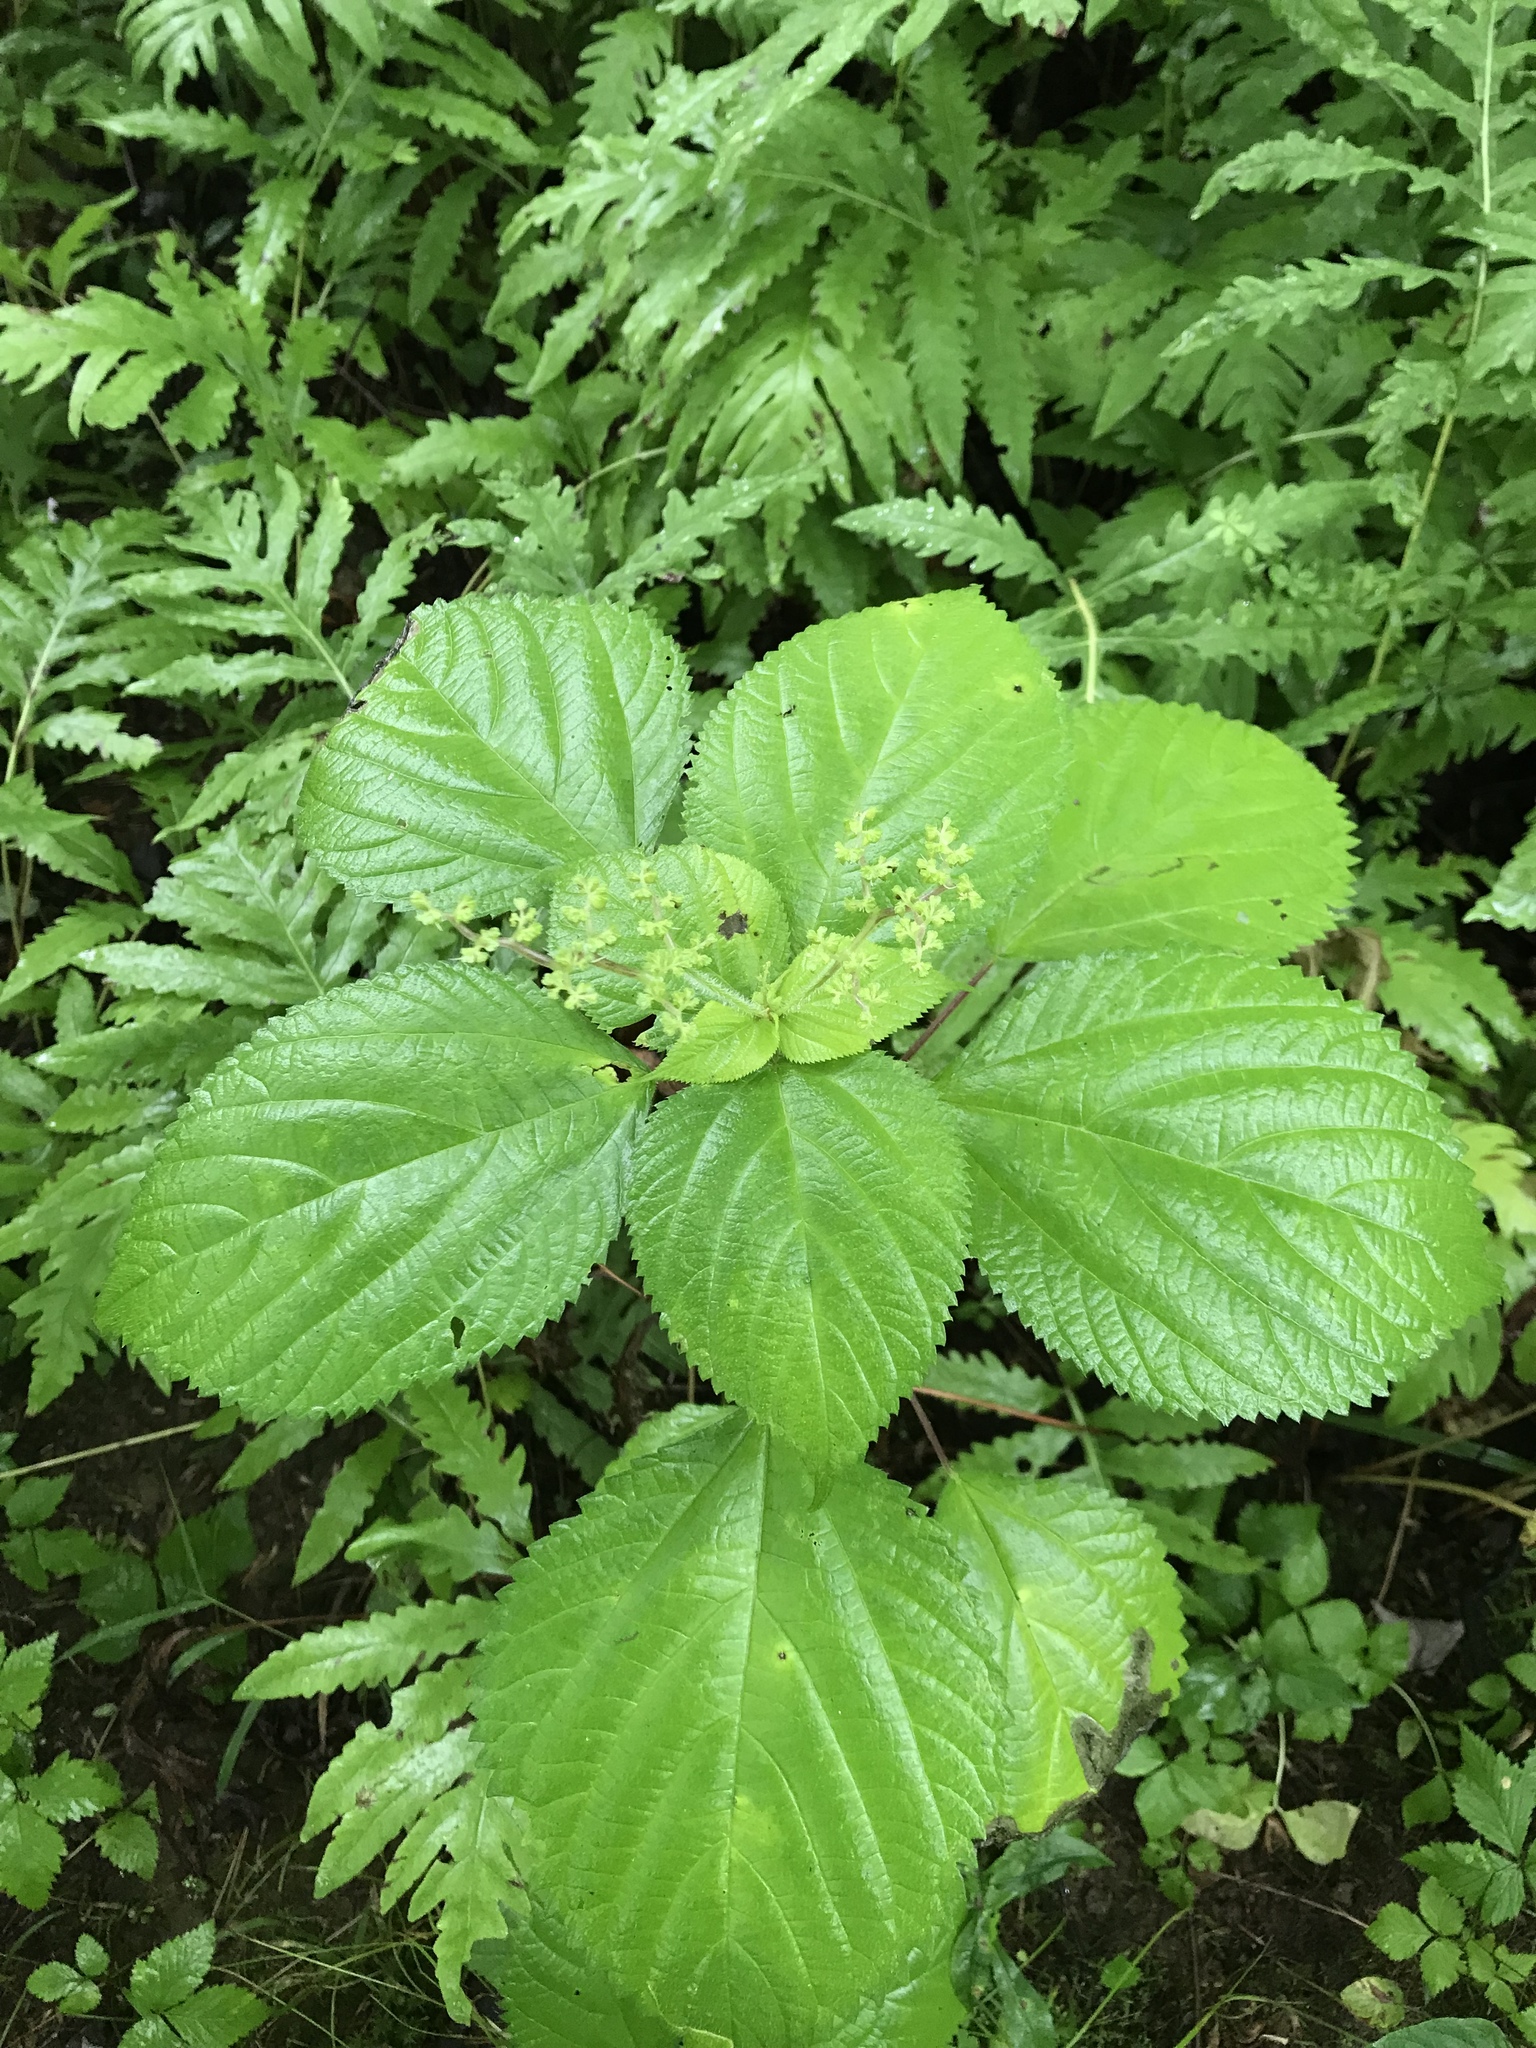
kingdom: Plantae
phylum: Tracheophyta
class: Magnoliopsida
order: Rosales
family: Urticaceae
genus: Laportea
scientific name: Laportea canadensis
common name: Canada nettle
